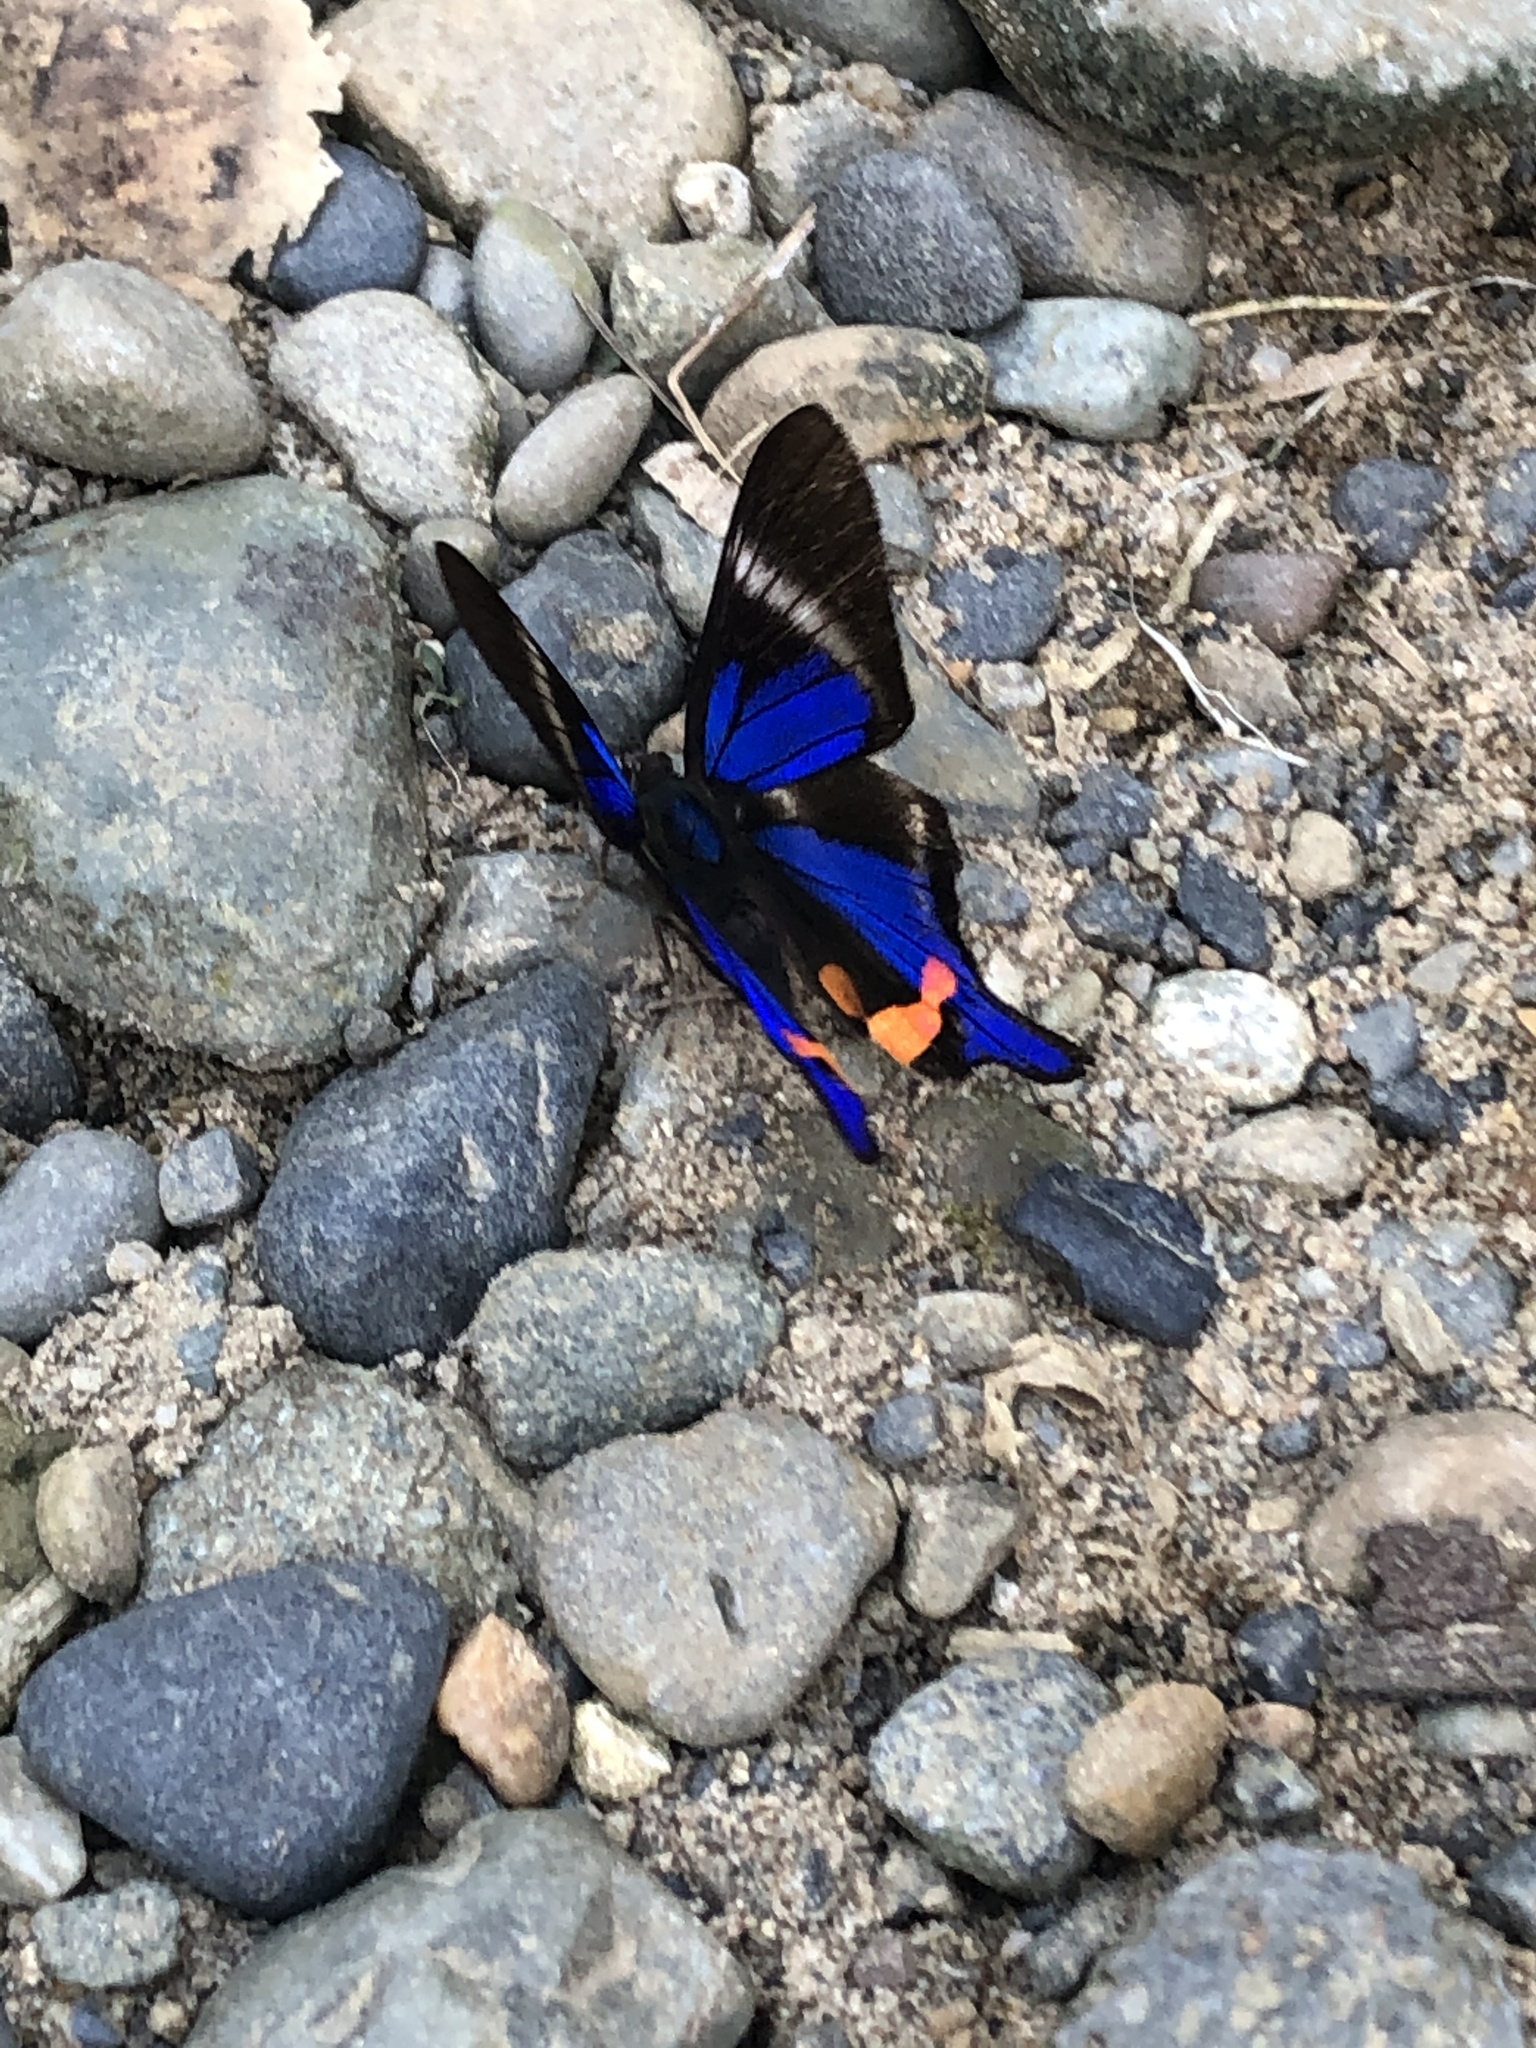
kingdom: Animalia
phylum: Arthropoda
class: Insecta
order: Lepidoptera
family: Riodinidae
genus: Rhetus
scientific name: Rhetus periander
